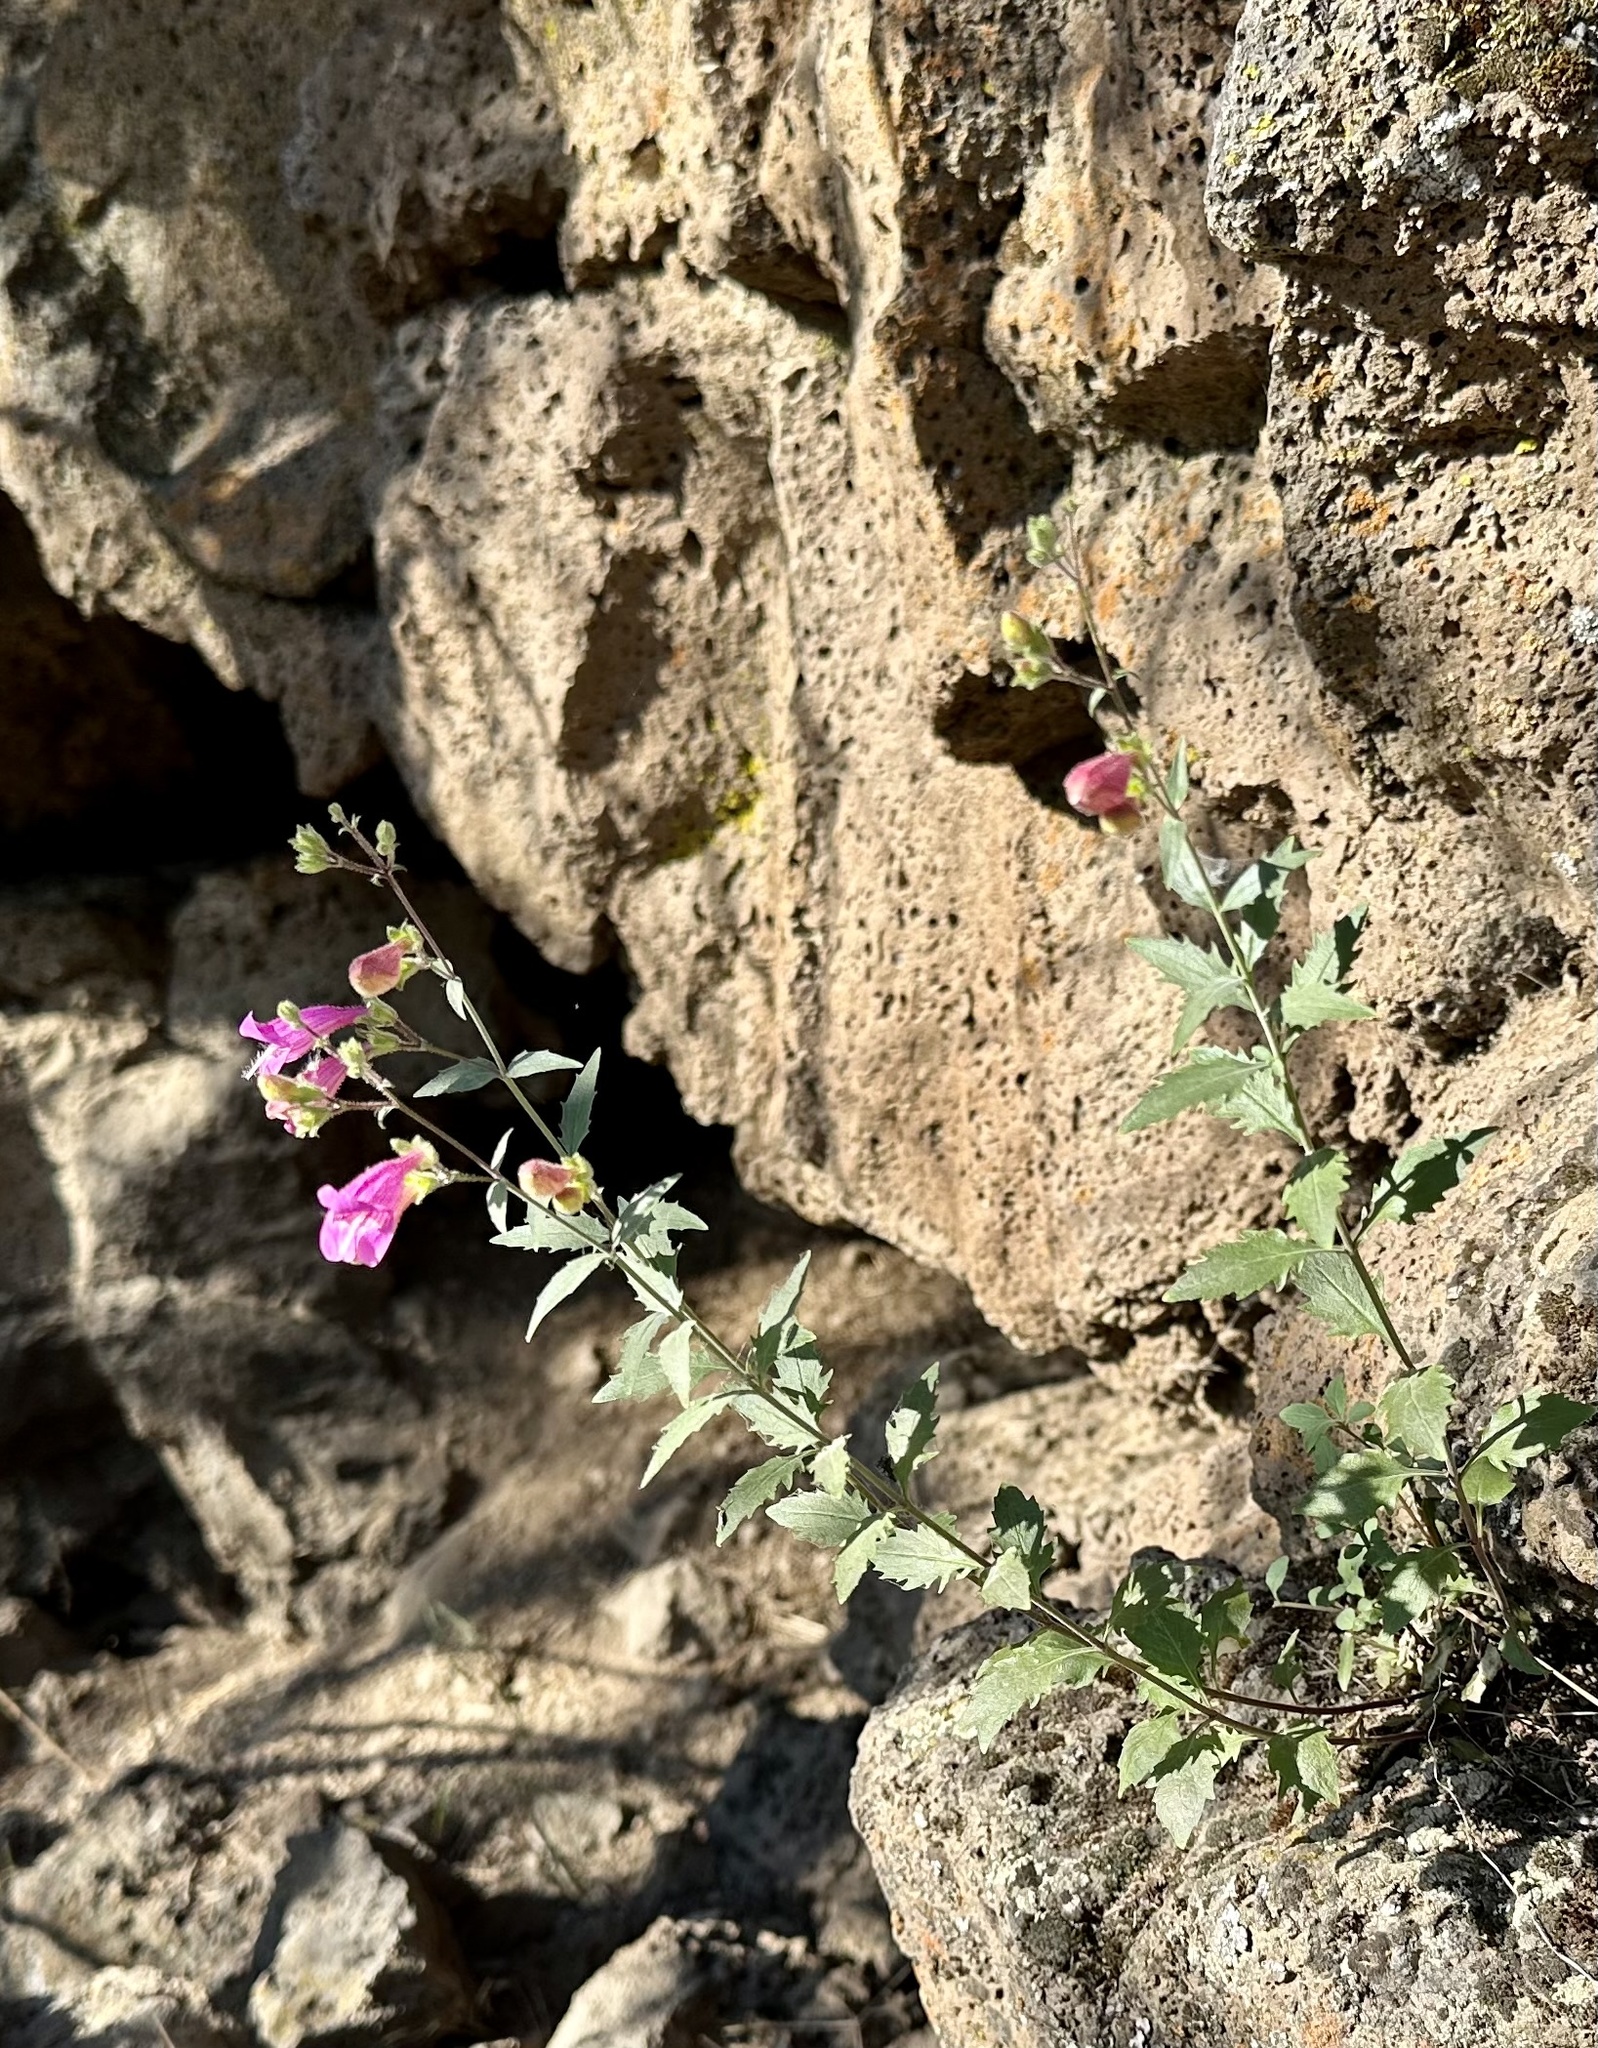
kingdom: Plantae
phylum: Tracheophyta
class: Magnoliopsida
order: Lamiales
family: Plantaginaceae
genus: Penstemon
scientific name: Penstemon richardsonii
